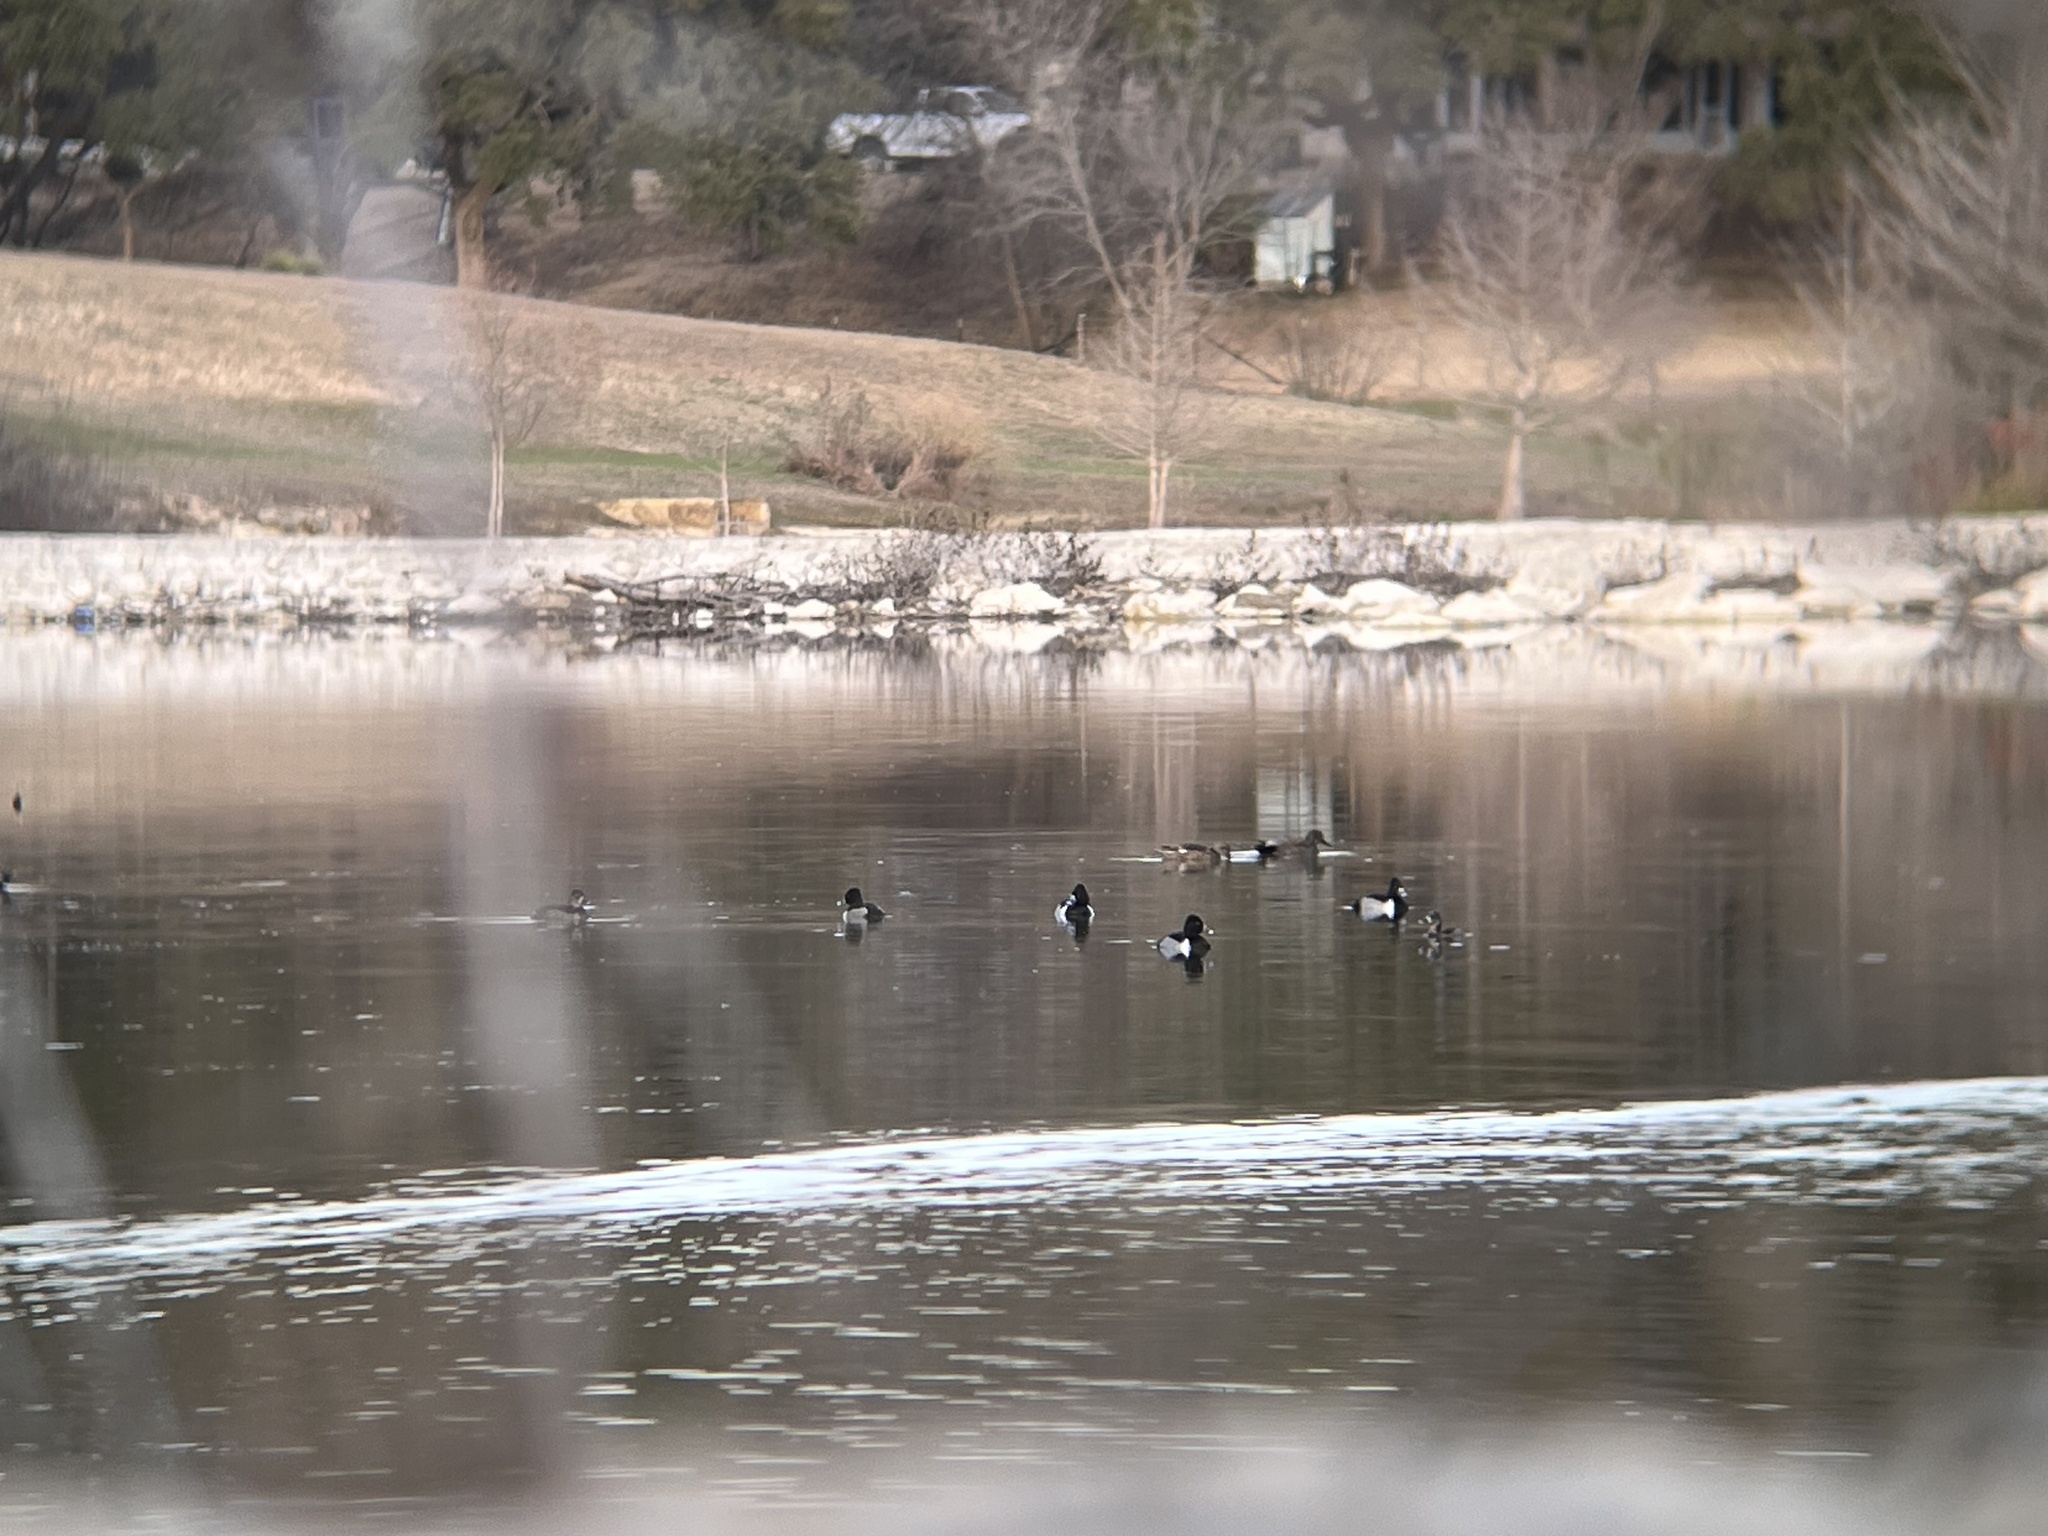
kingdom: Animalia
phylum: Chordata
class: Aves
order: Anseriformes
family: Anatidae
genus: Aythya
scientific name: Aythya collaris
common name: Ring-necked duck
